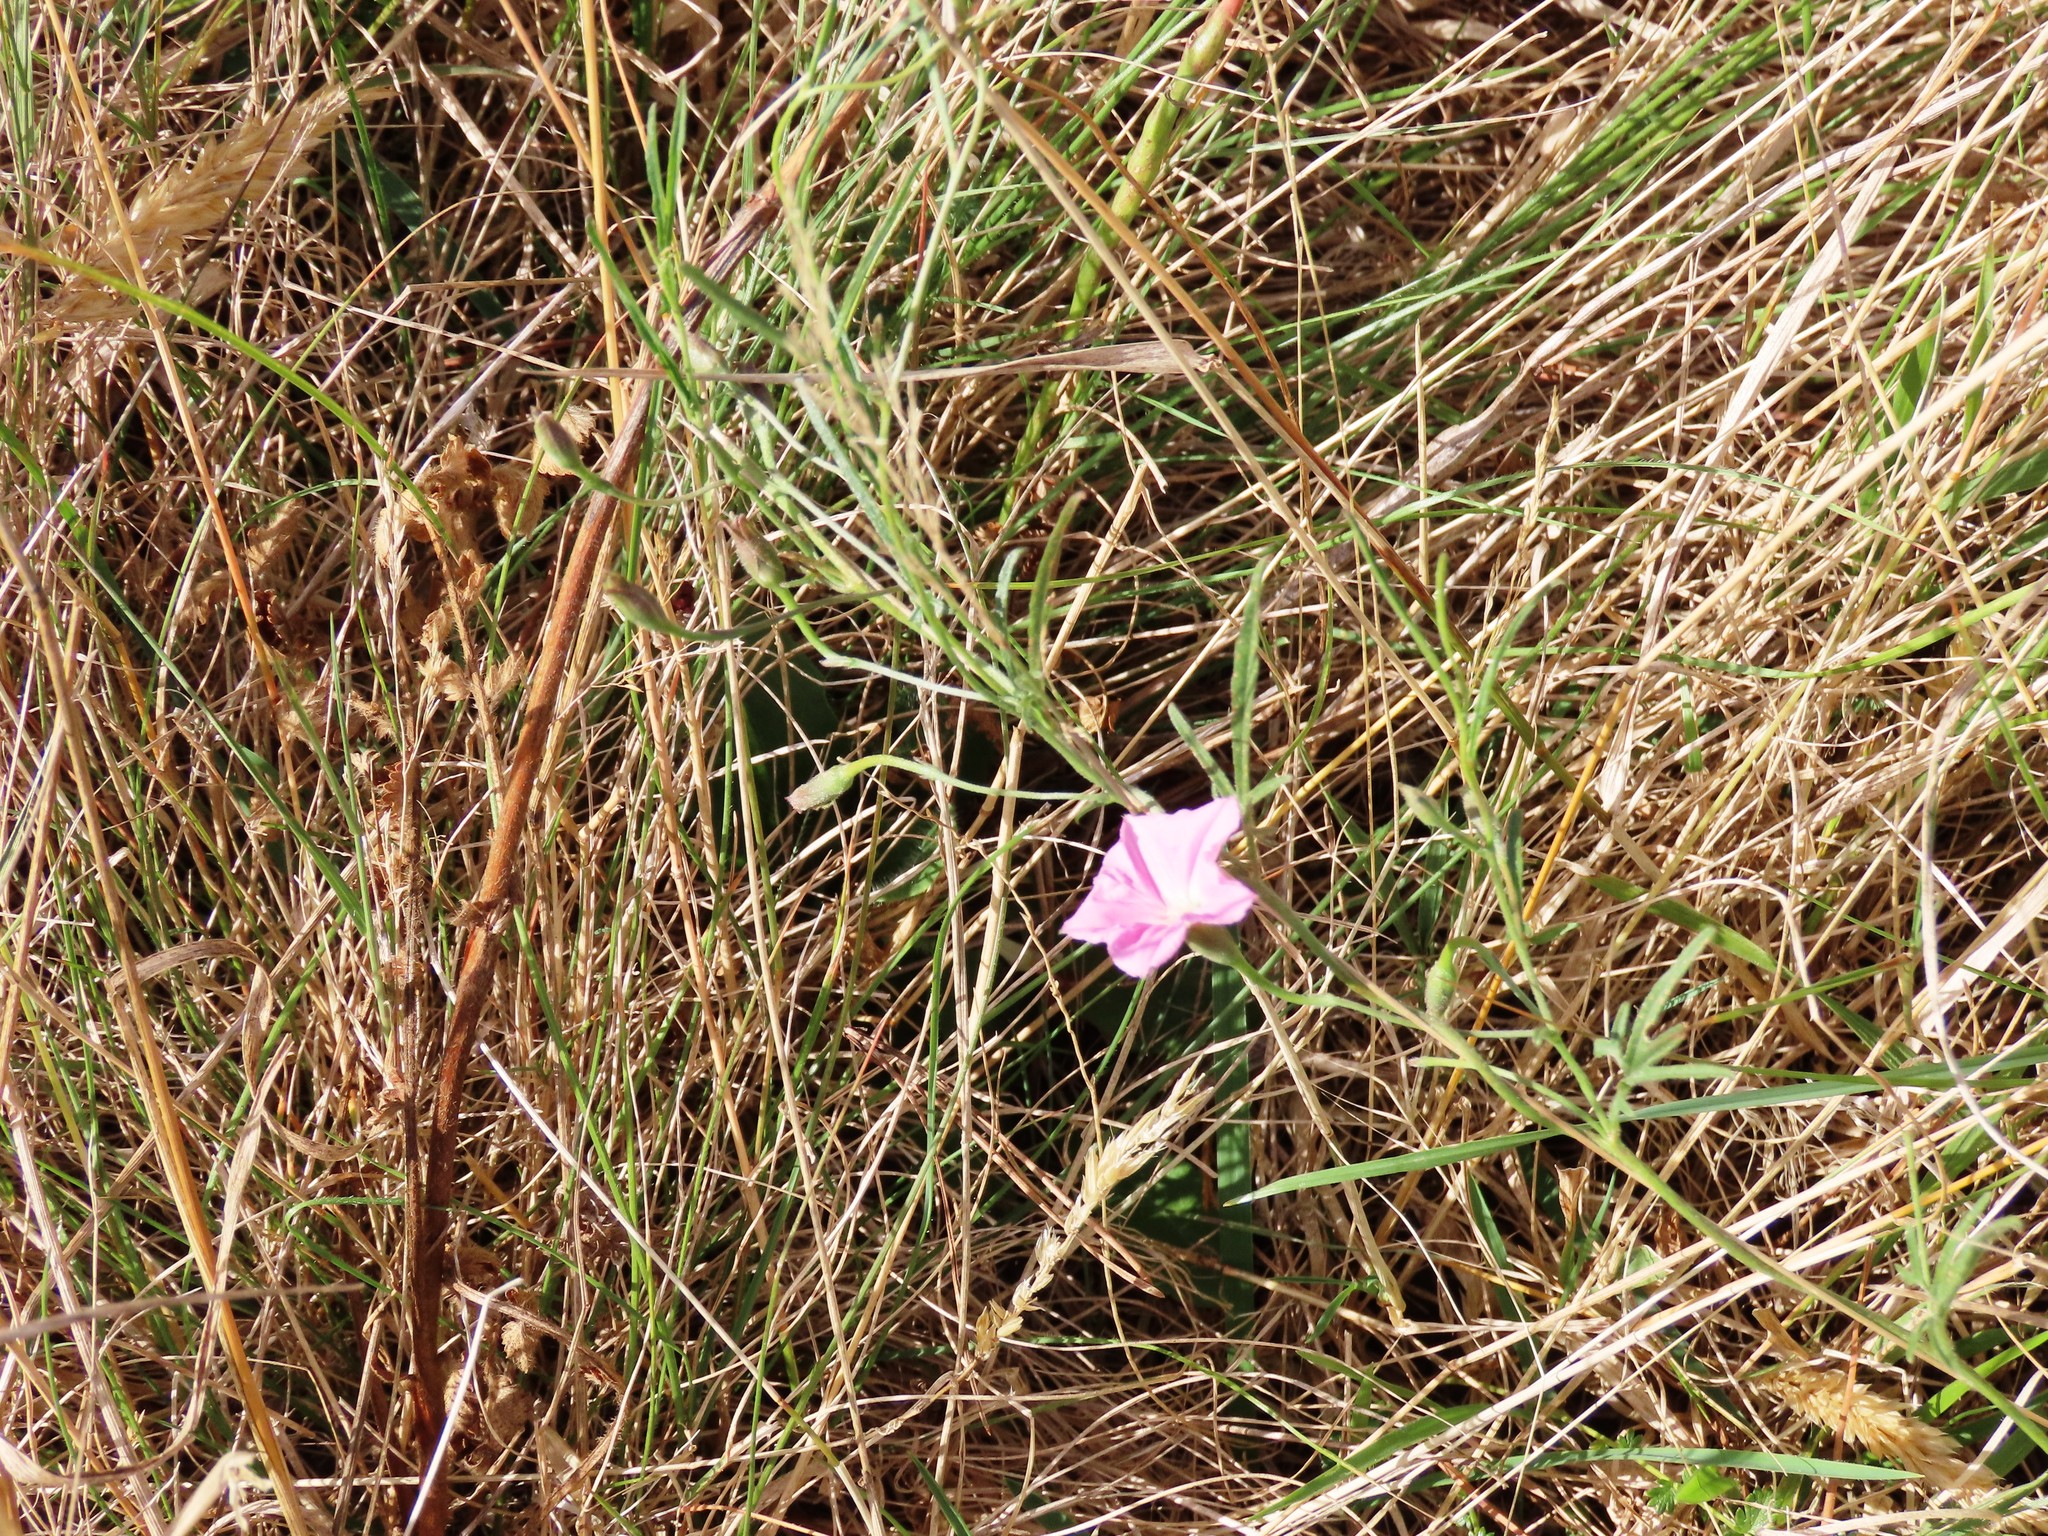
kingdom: Plantae
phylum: Tracheophyta
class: Magnoliopsida
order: Solanales
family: Convolvulaceae
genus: Convolvulus
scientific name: Convolvulus angustissimus
